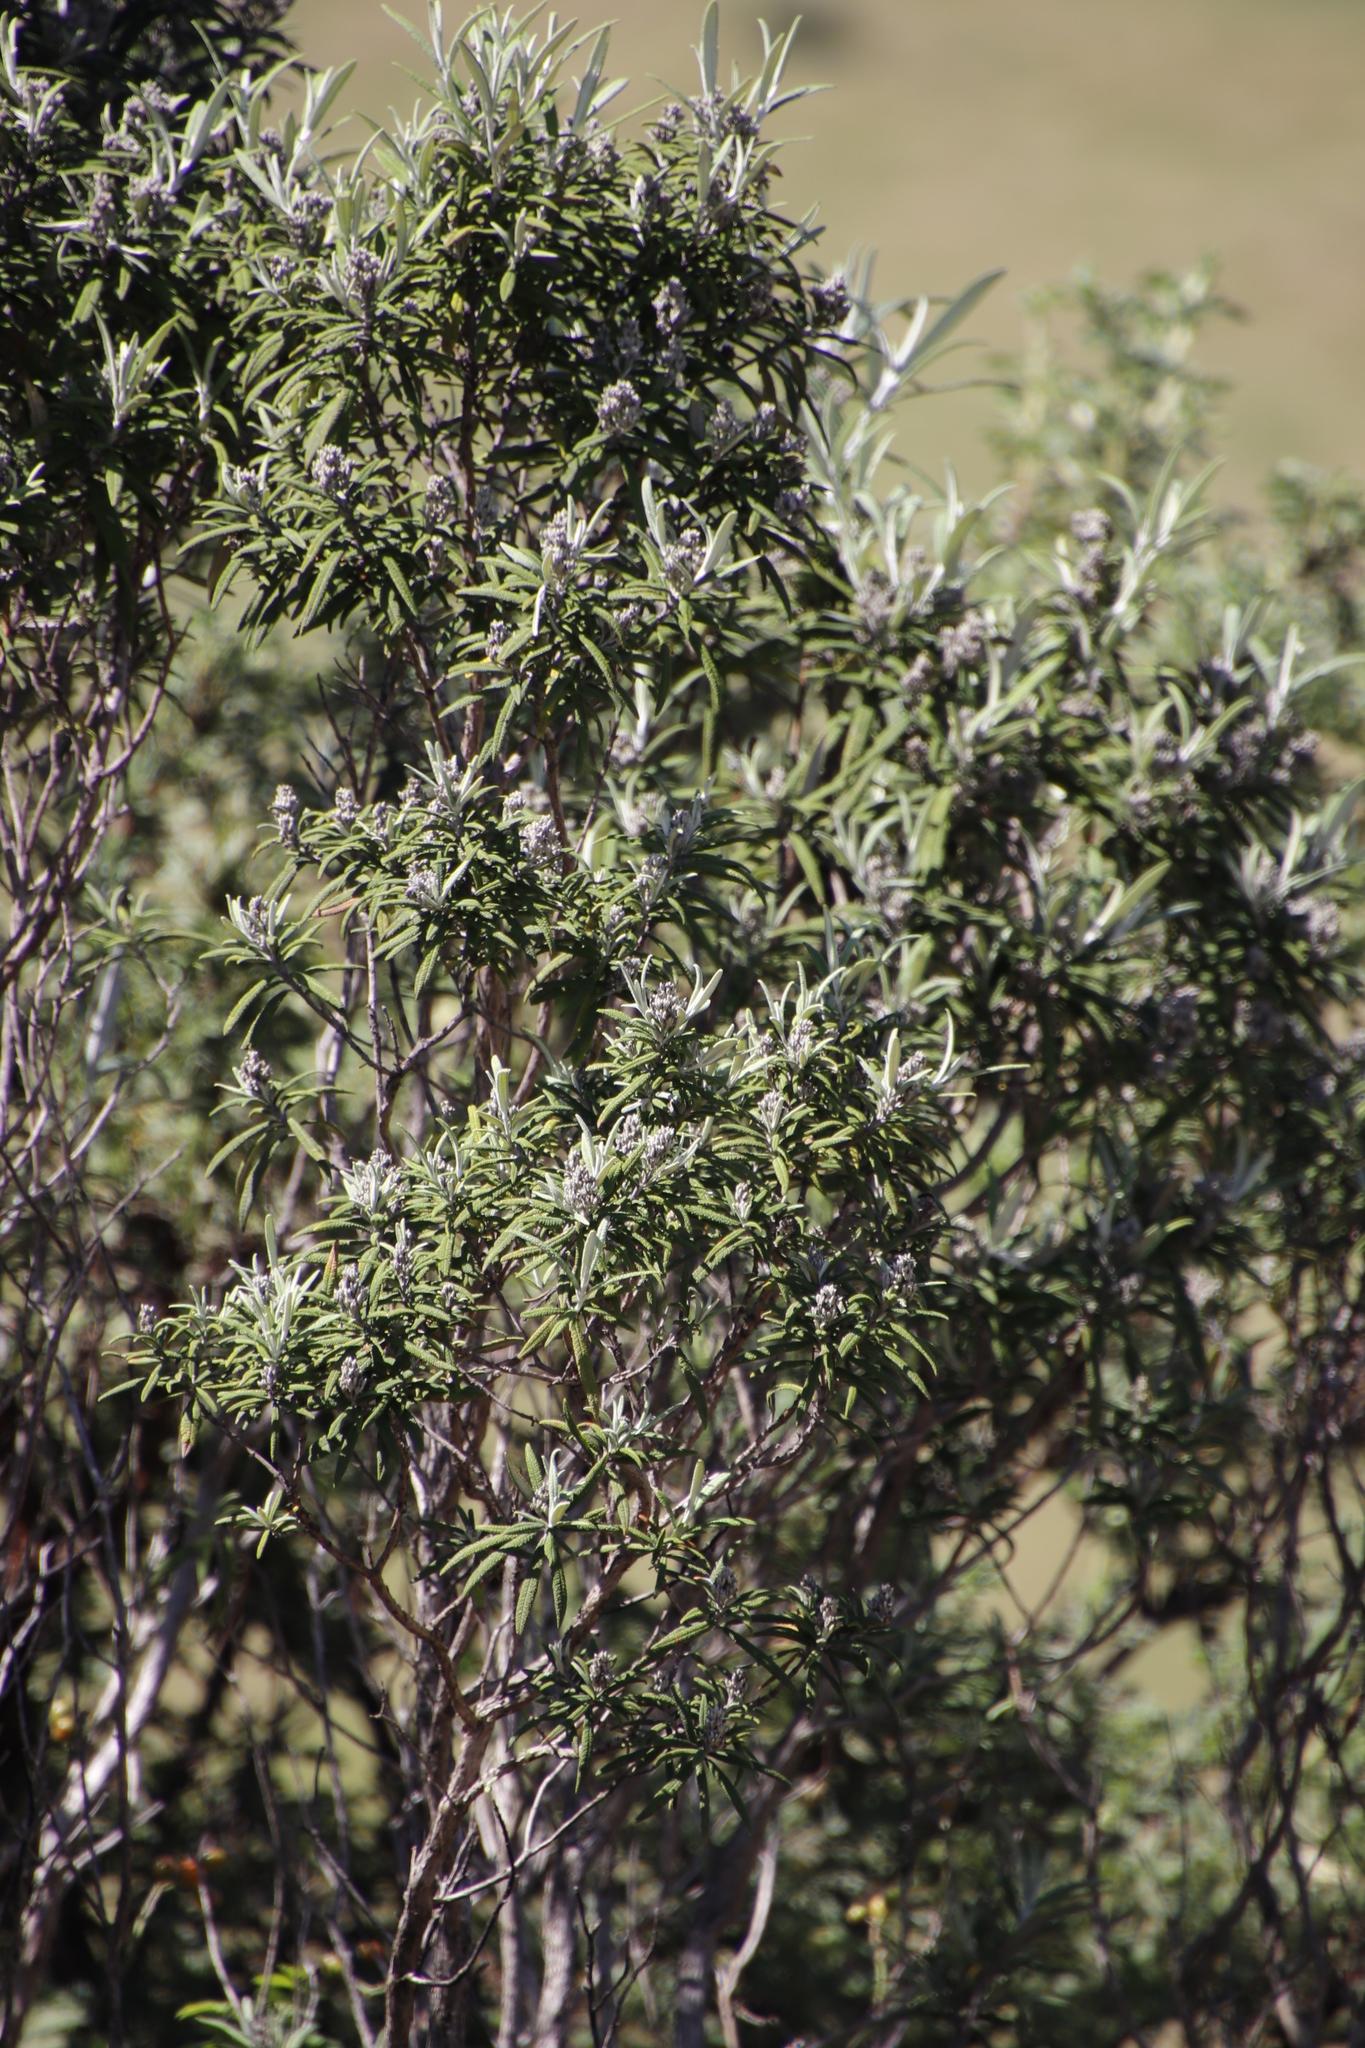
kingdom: Plantae
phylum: Tracheophyta
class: Magnoliopsida
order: Lamiales
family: Scrophulariaceae
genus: Buddleja
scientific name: Buddleja loricata
